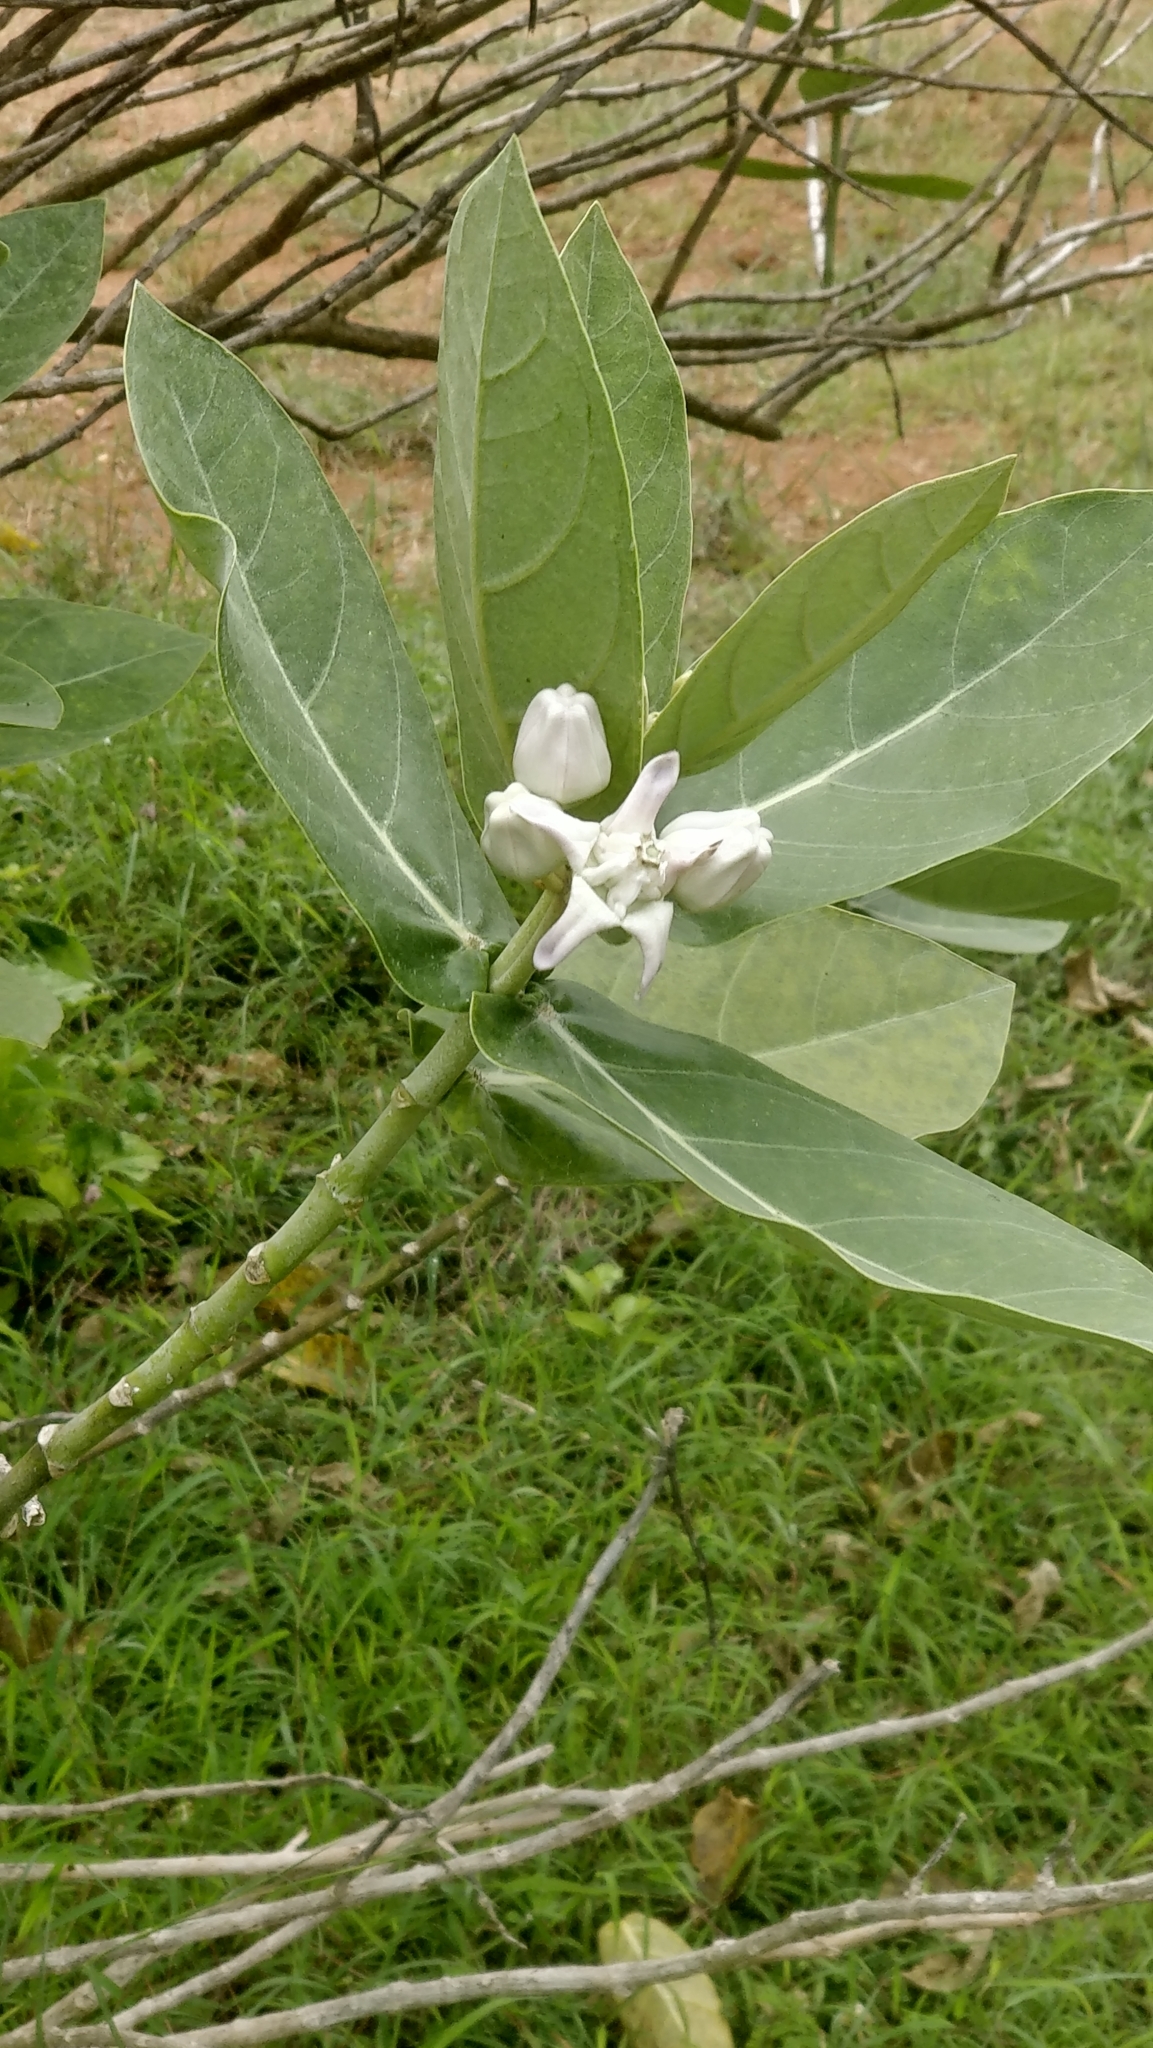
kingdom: Plantae
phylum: Tracheophyta
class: Magnoliopsida
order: Gentianales
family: Apocynaceae
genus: Calotropis
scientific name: Calotropis gigantea
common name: Crown flower
